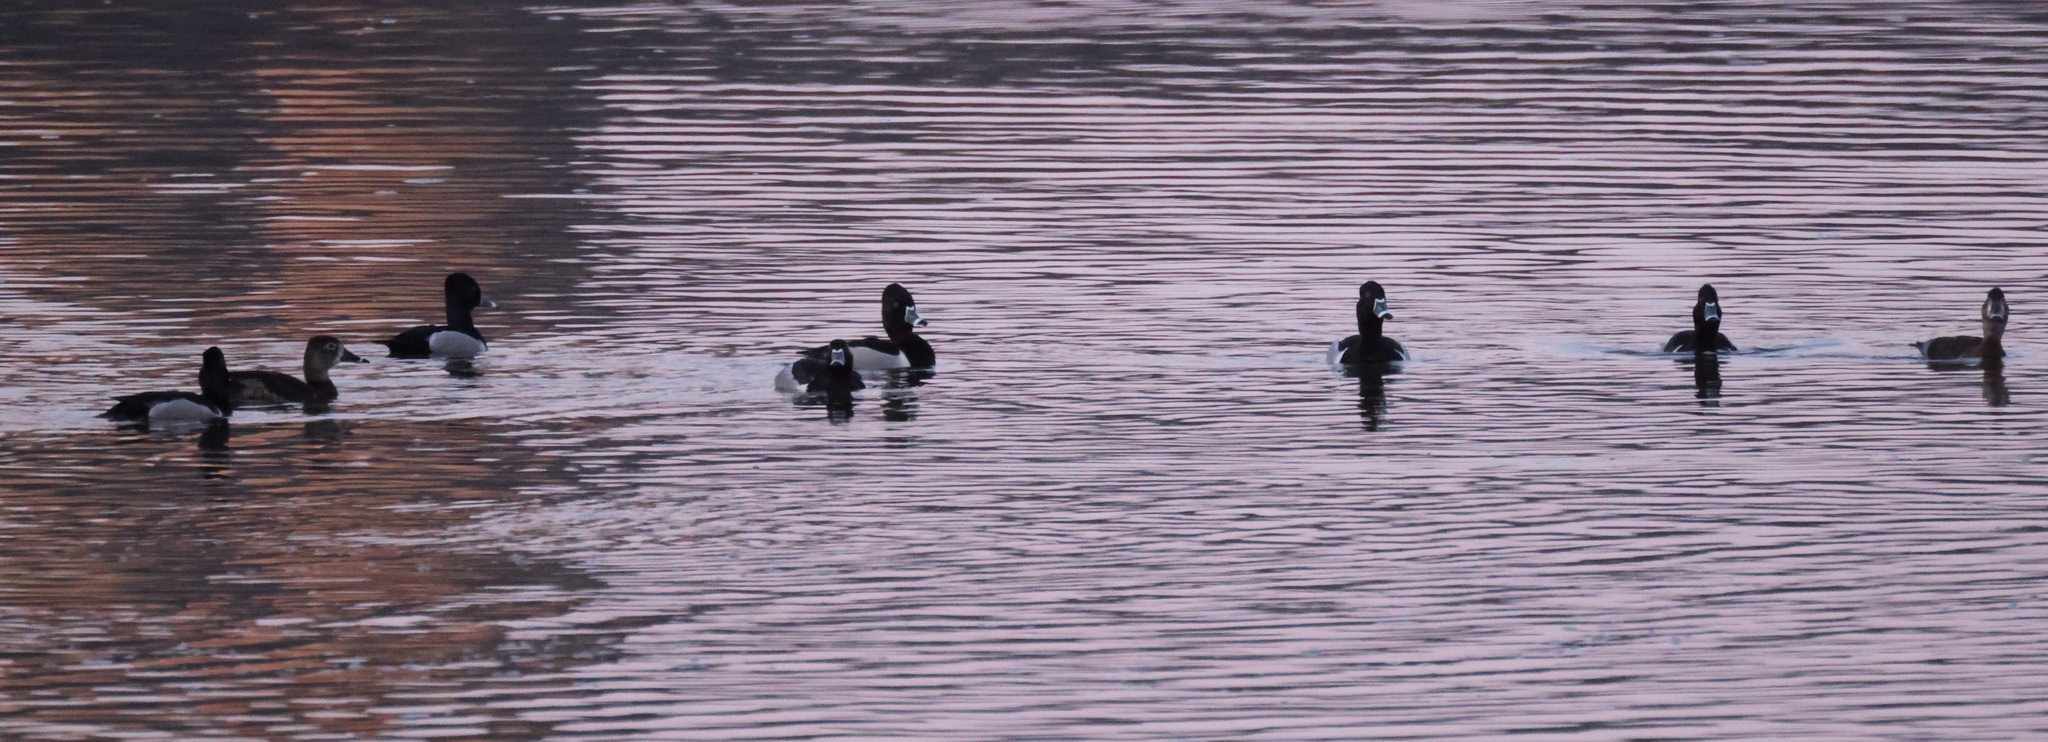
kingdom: Animalia
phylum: Chordata
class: Aves
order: Anseriformes
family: Anatidae
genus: Aythya
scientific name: Aythya collaris
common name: Ring-necked duck
